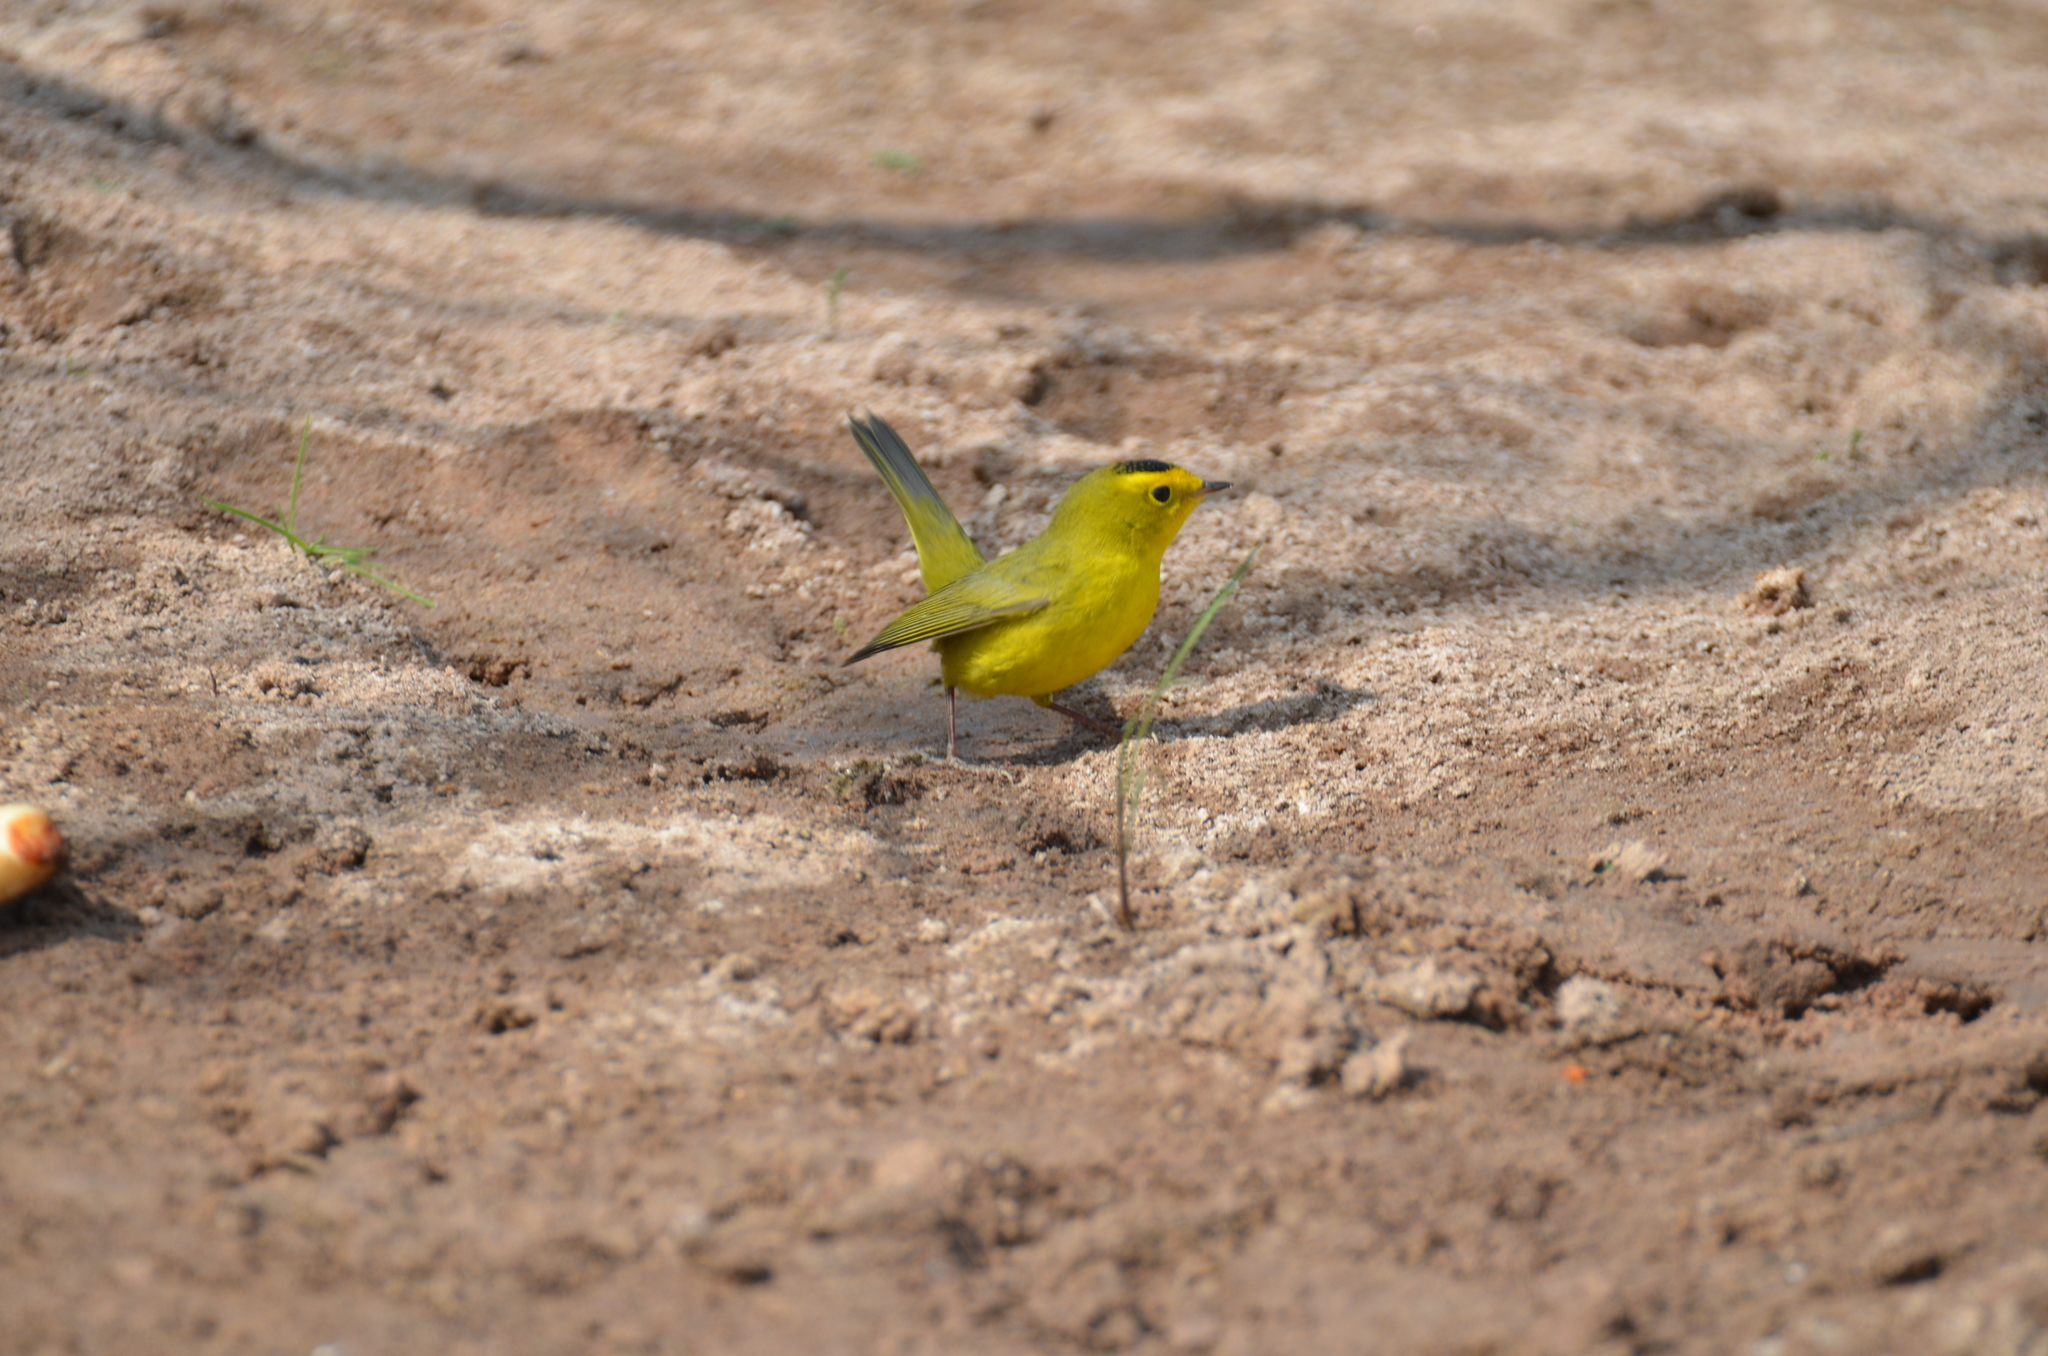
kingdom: Animalia
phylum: Chordata
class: Aves
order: Passeriformes
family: Parulidae
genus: Cardellina
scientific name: Cardellina pusilla
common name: Wilson's warbler
